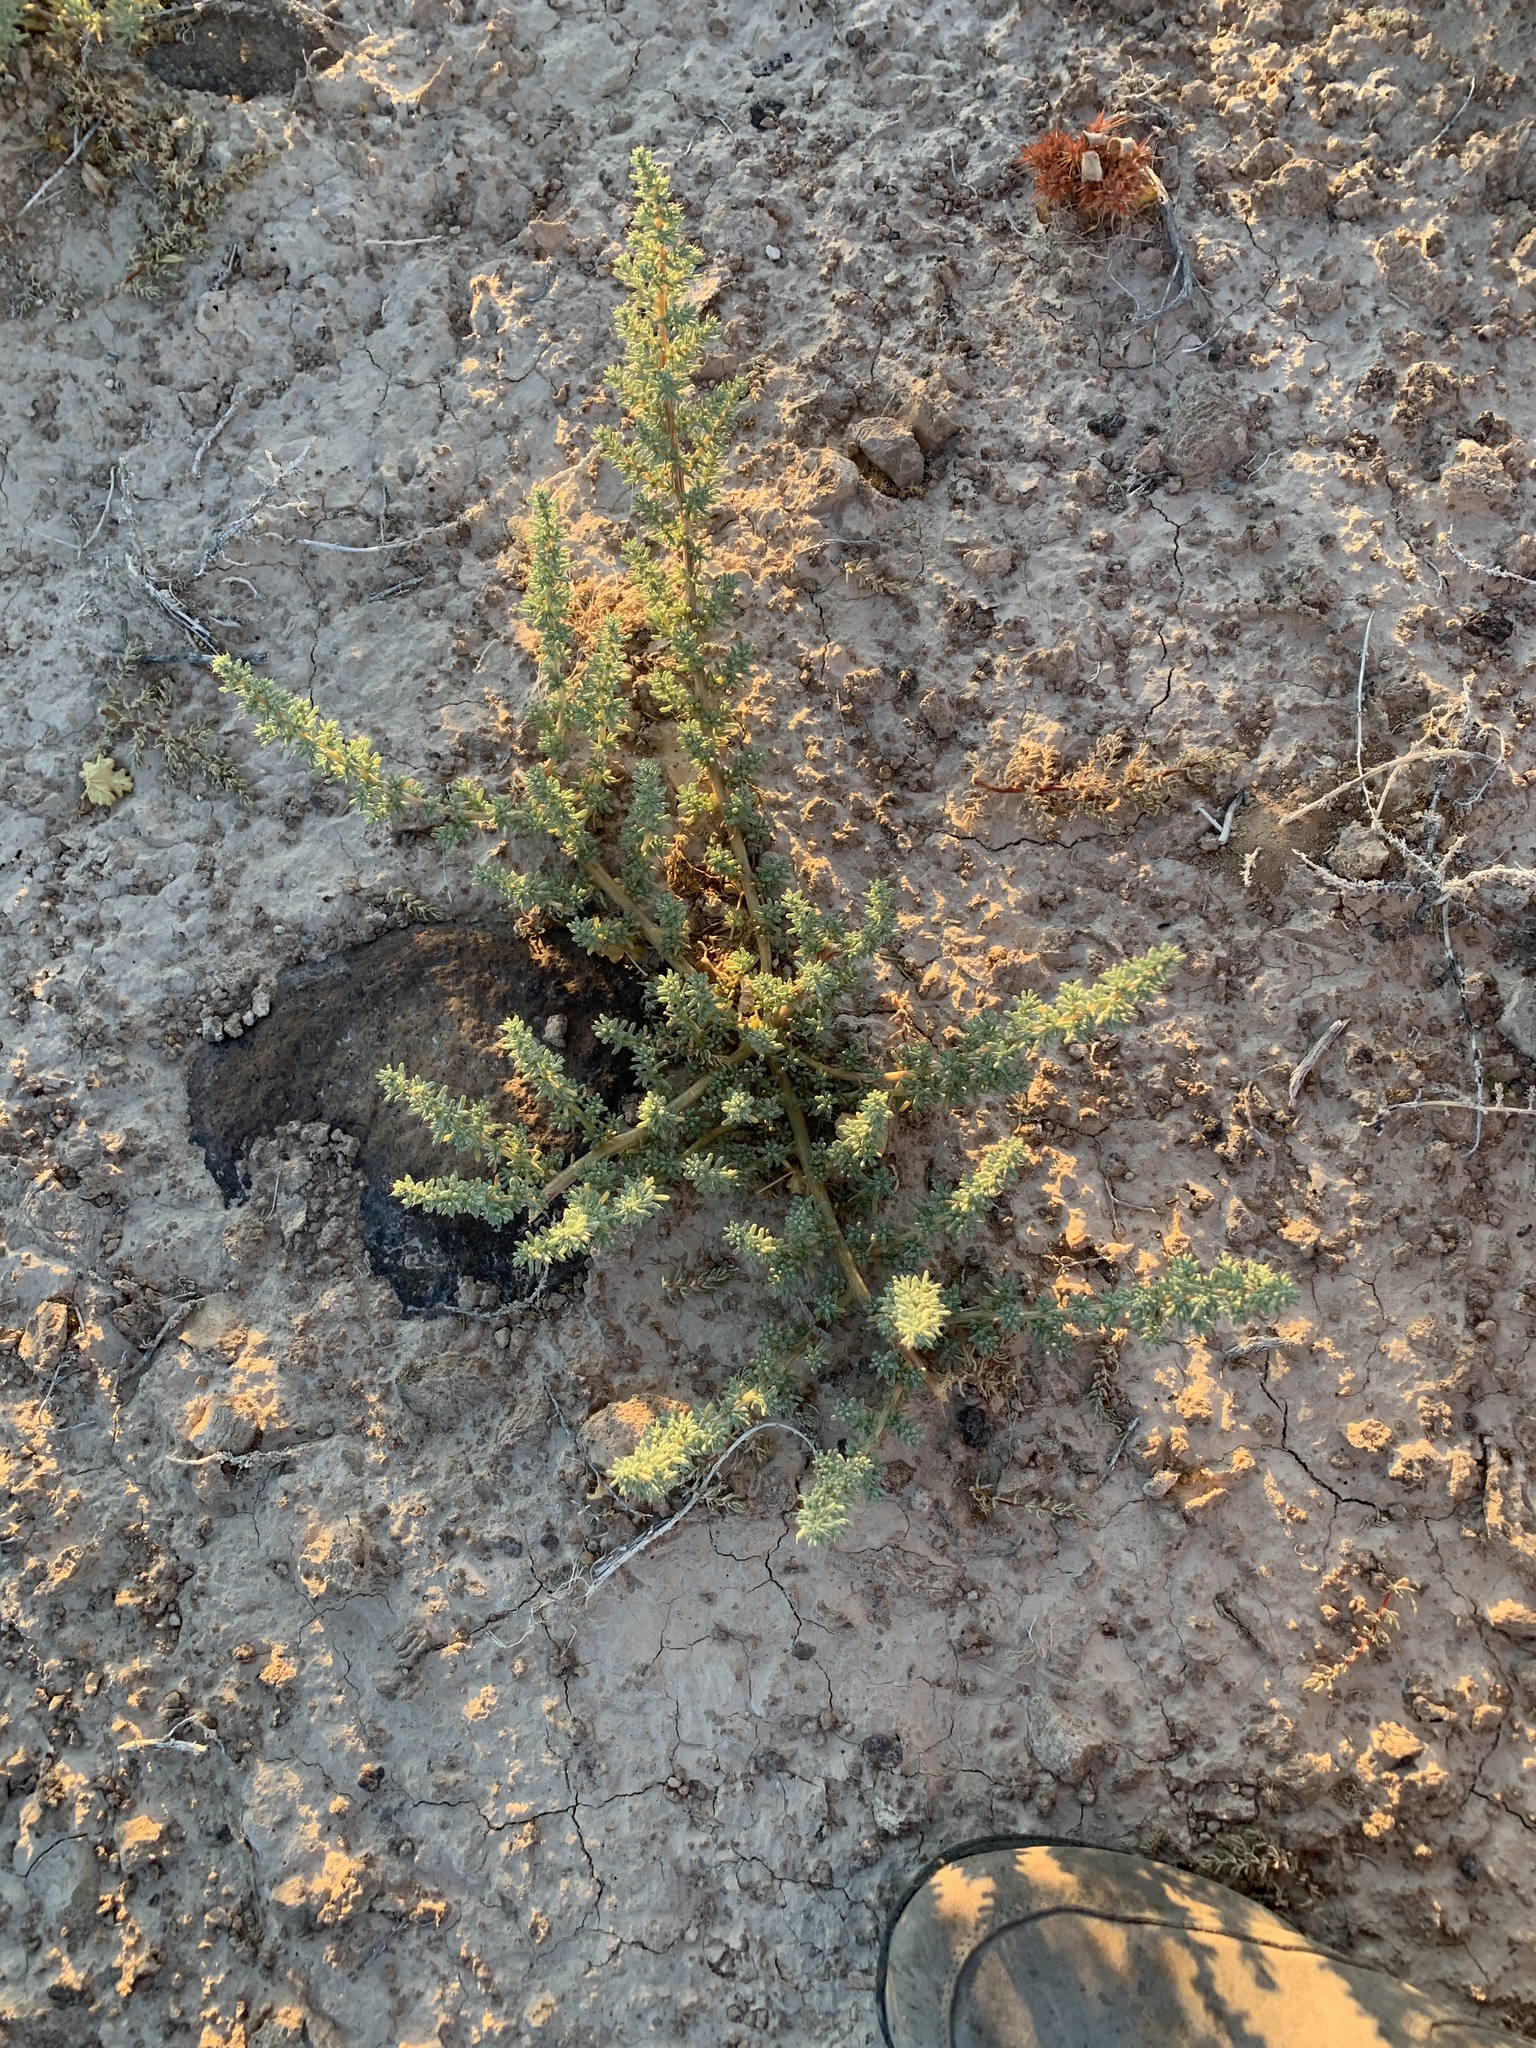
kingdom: Plantae
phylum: Tracheophyta
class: Magnoliopsida
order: Caryophyllales
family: Amaranthaceae
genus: Halogeton
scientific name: Halogeton glomeratus
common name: Saltlover
